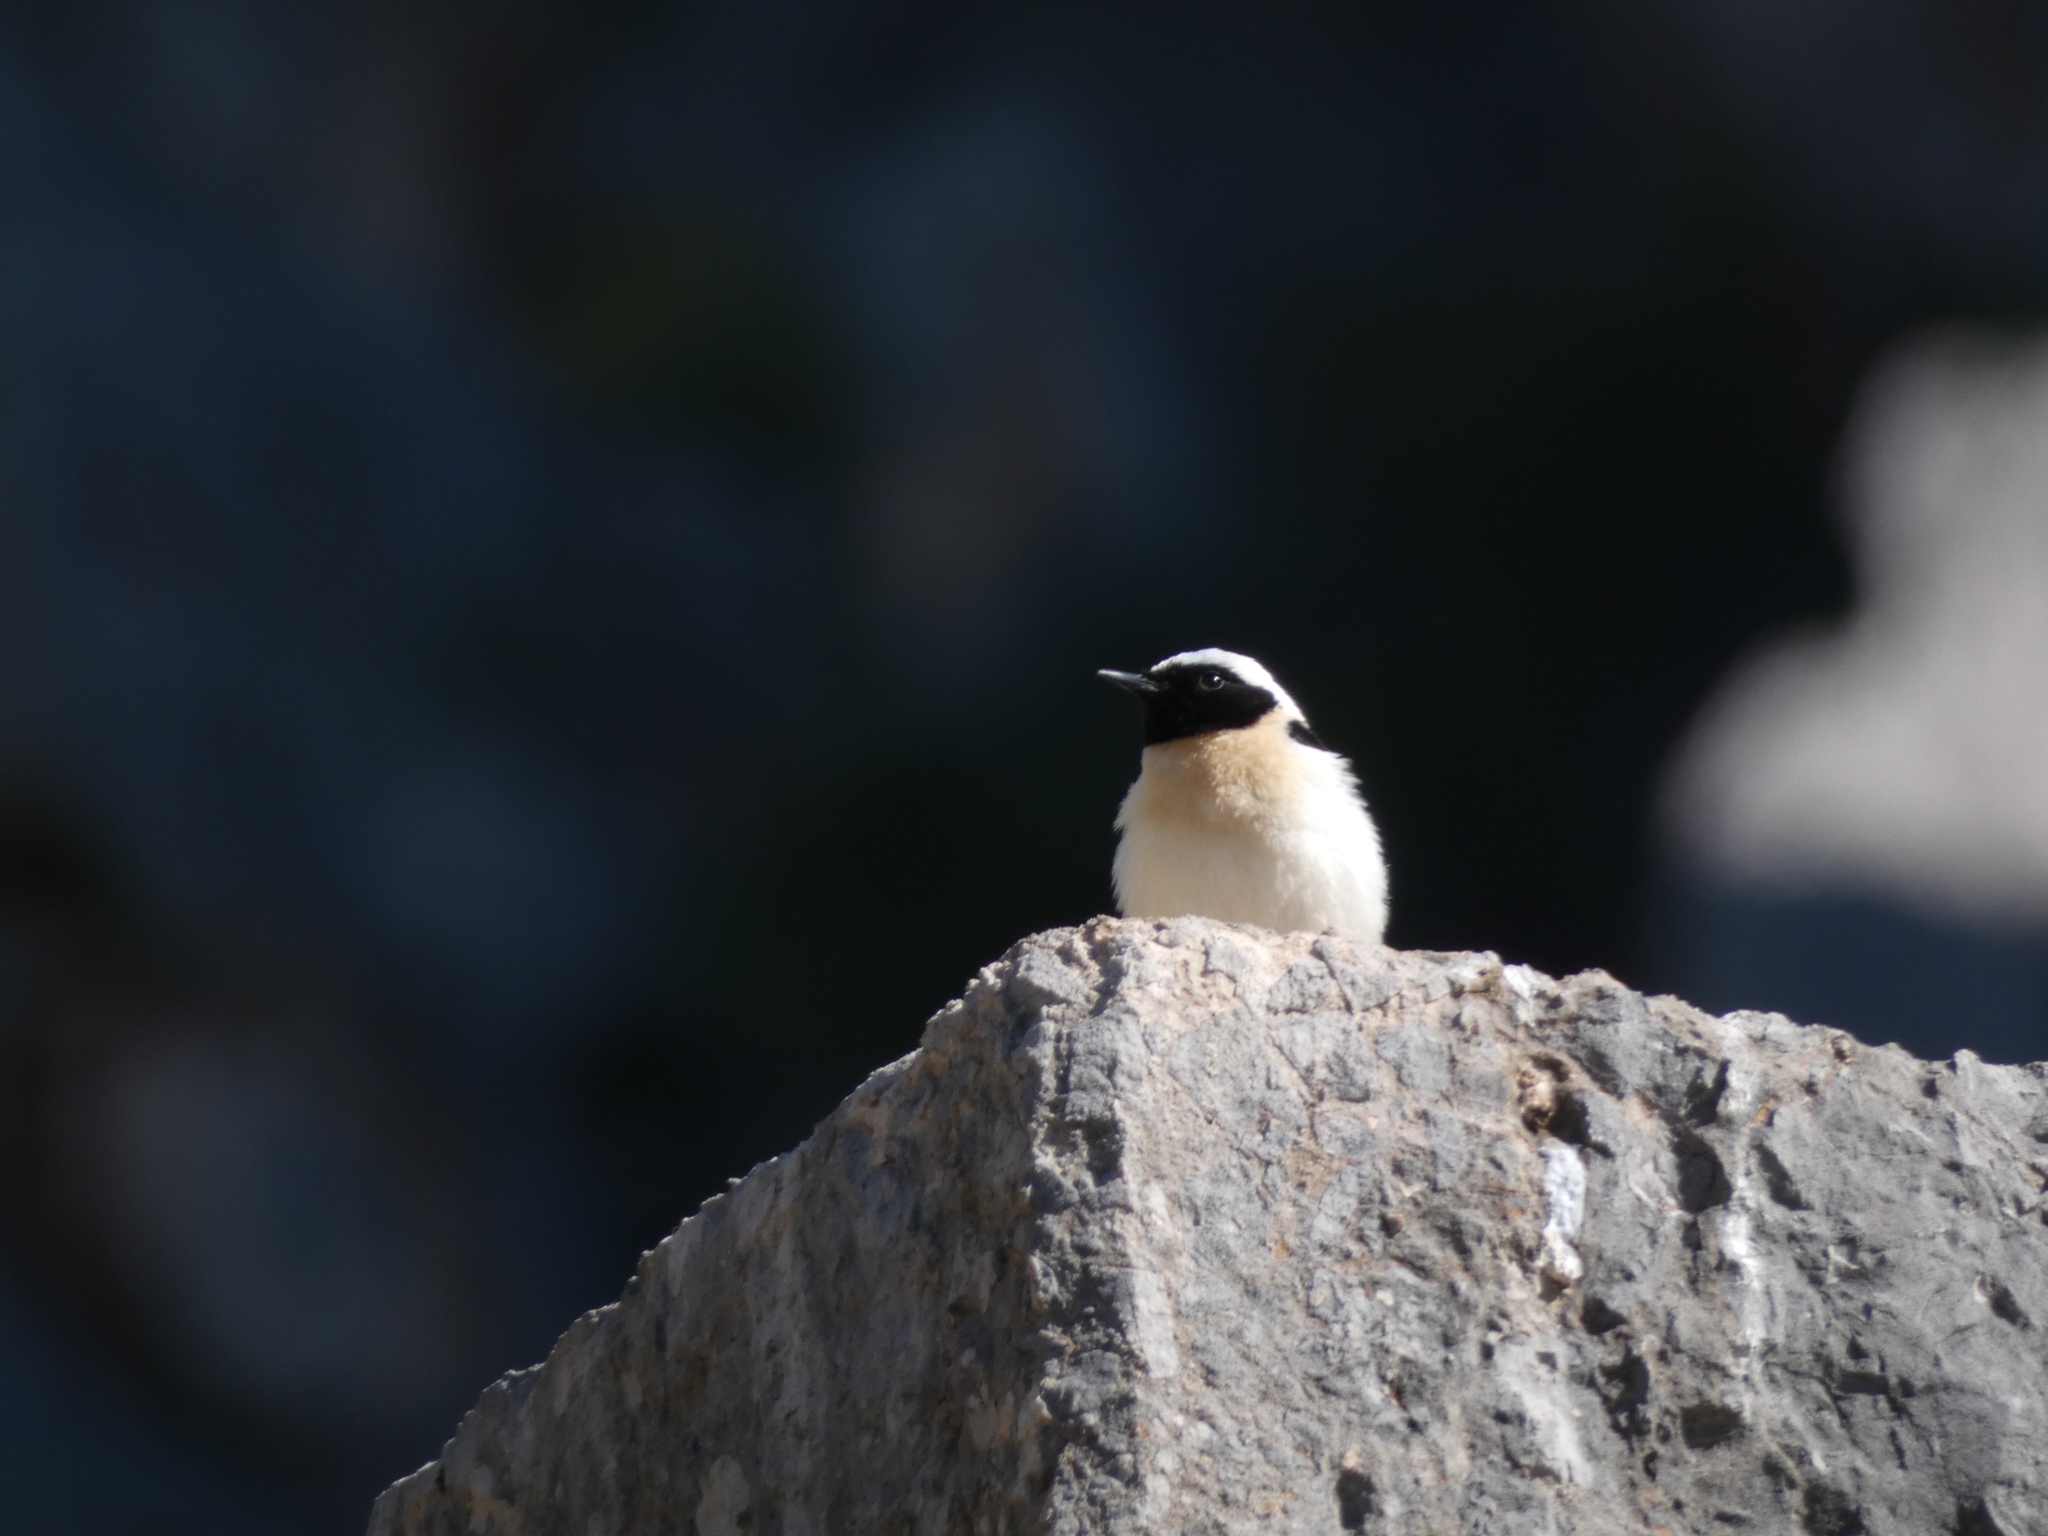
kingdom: Animalia
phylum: Chordata
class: Aves
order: Passeriformes
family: Muscicapidae
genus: Oenanthe
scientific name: Oenanthe hispanica
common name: Black-eared wheatear
